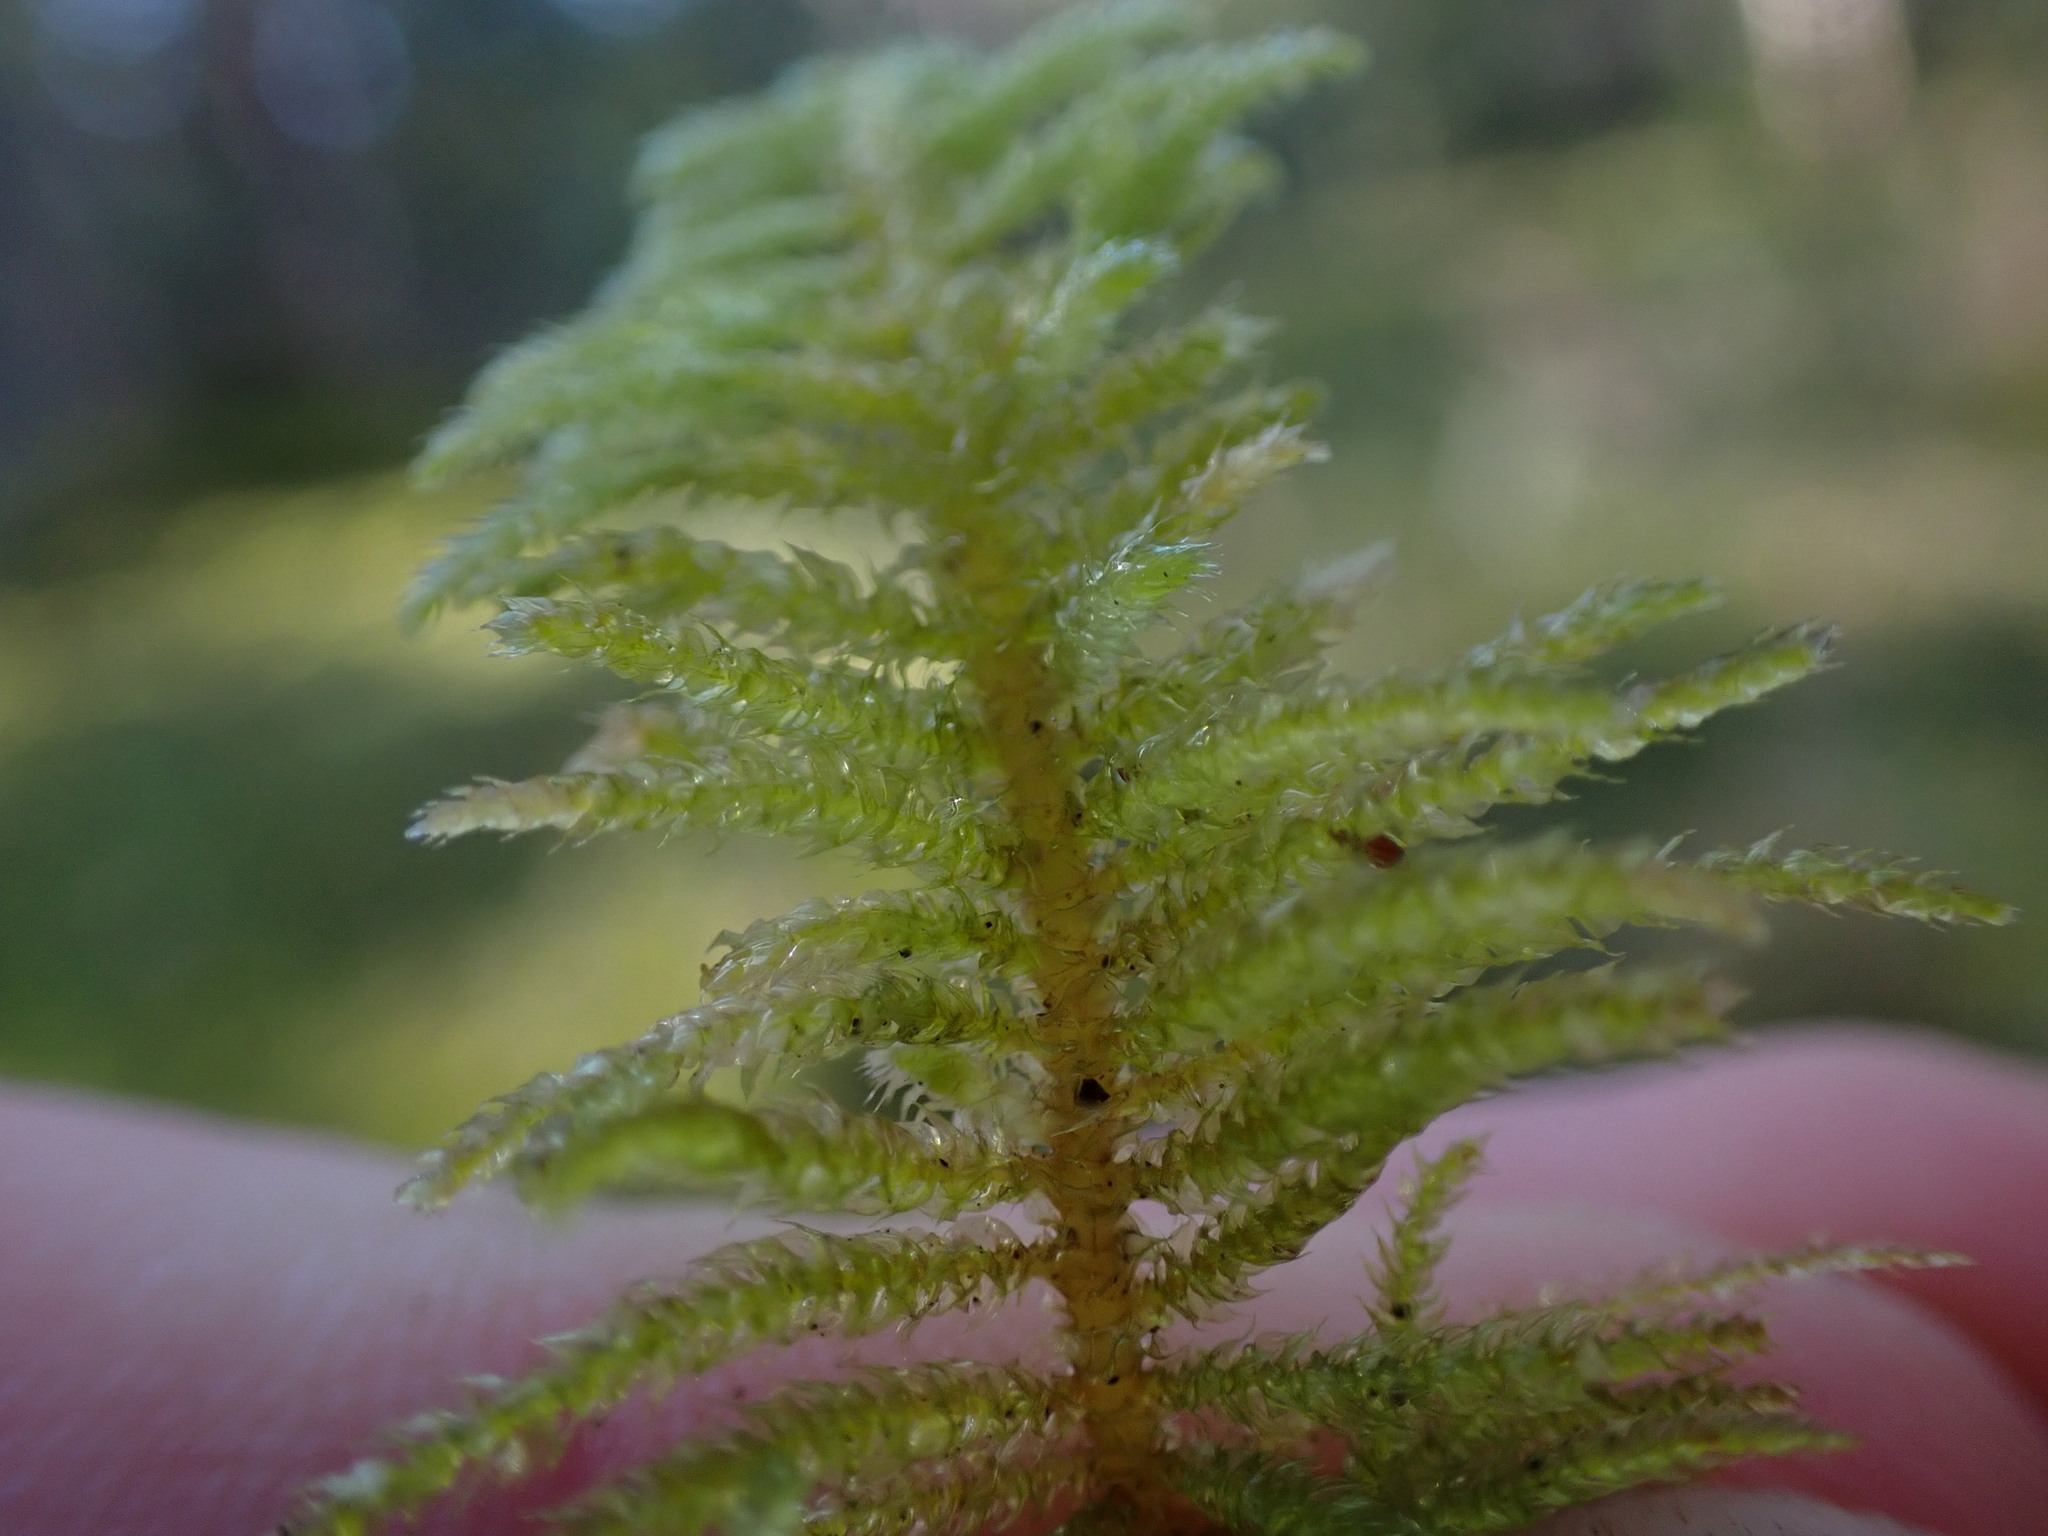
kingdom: Plantae
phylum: Bryophyta
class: Bryopsida
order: Hypnales
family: Brachytheciaceae
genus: Kindbergia
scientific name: Kindbergia oregana
